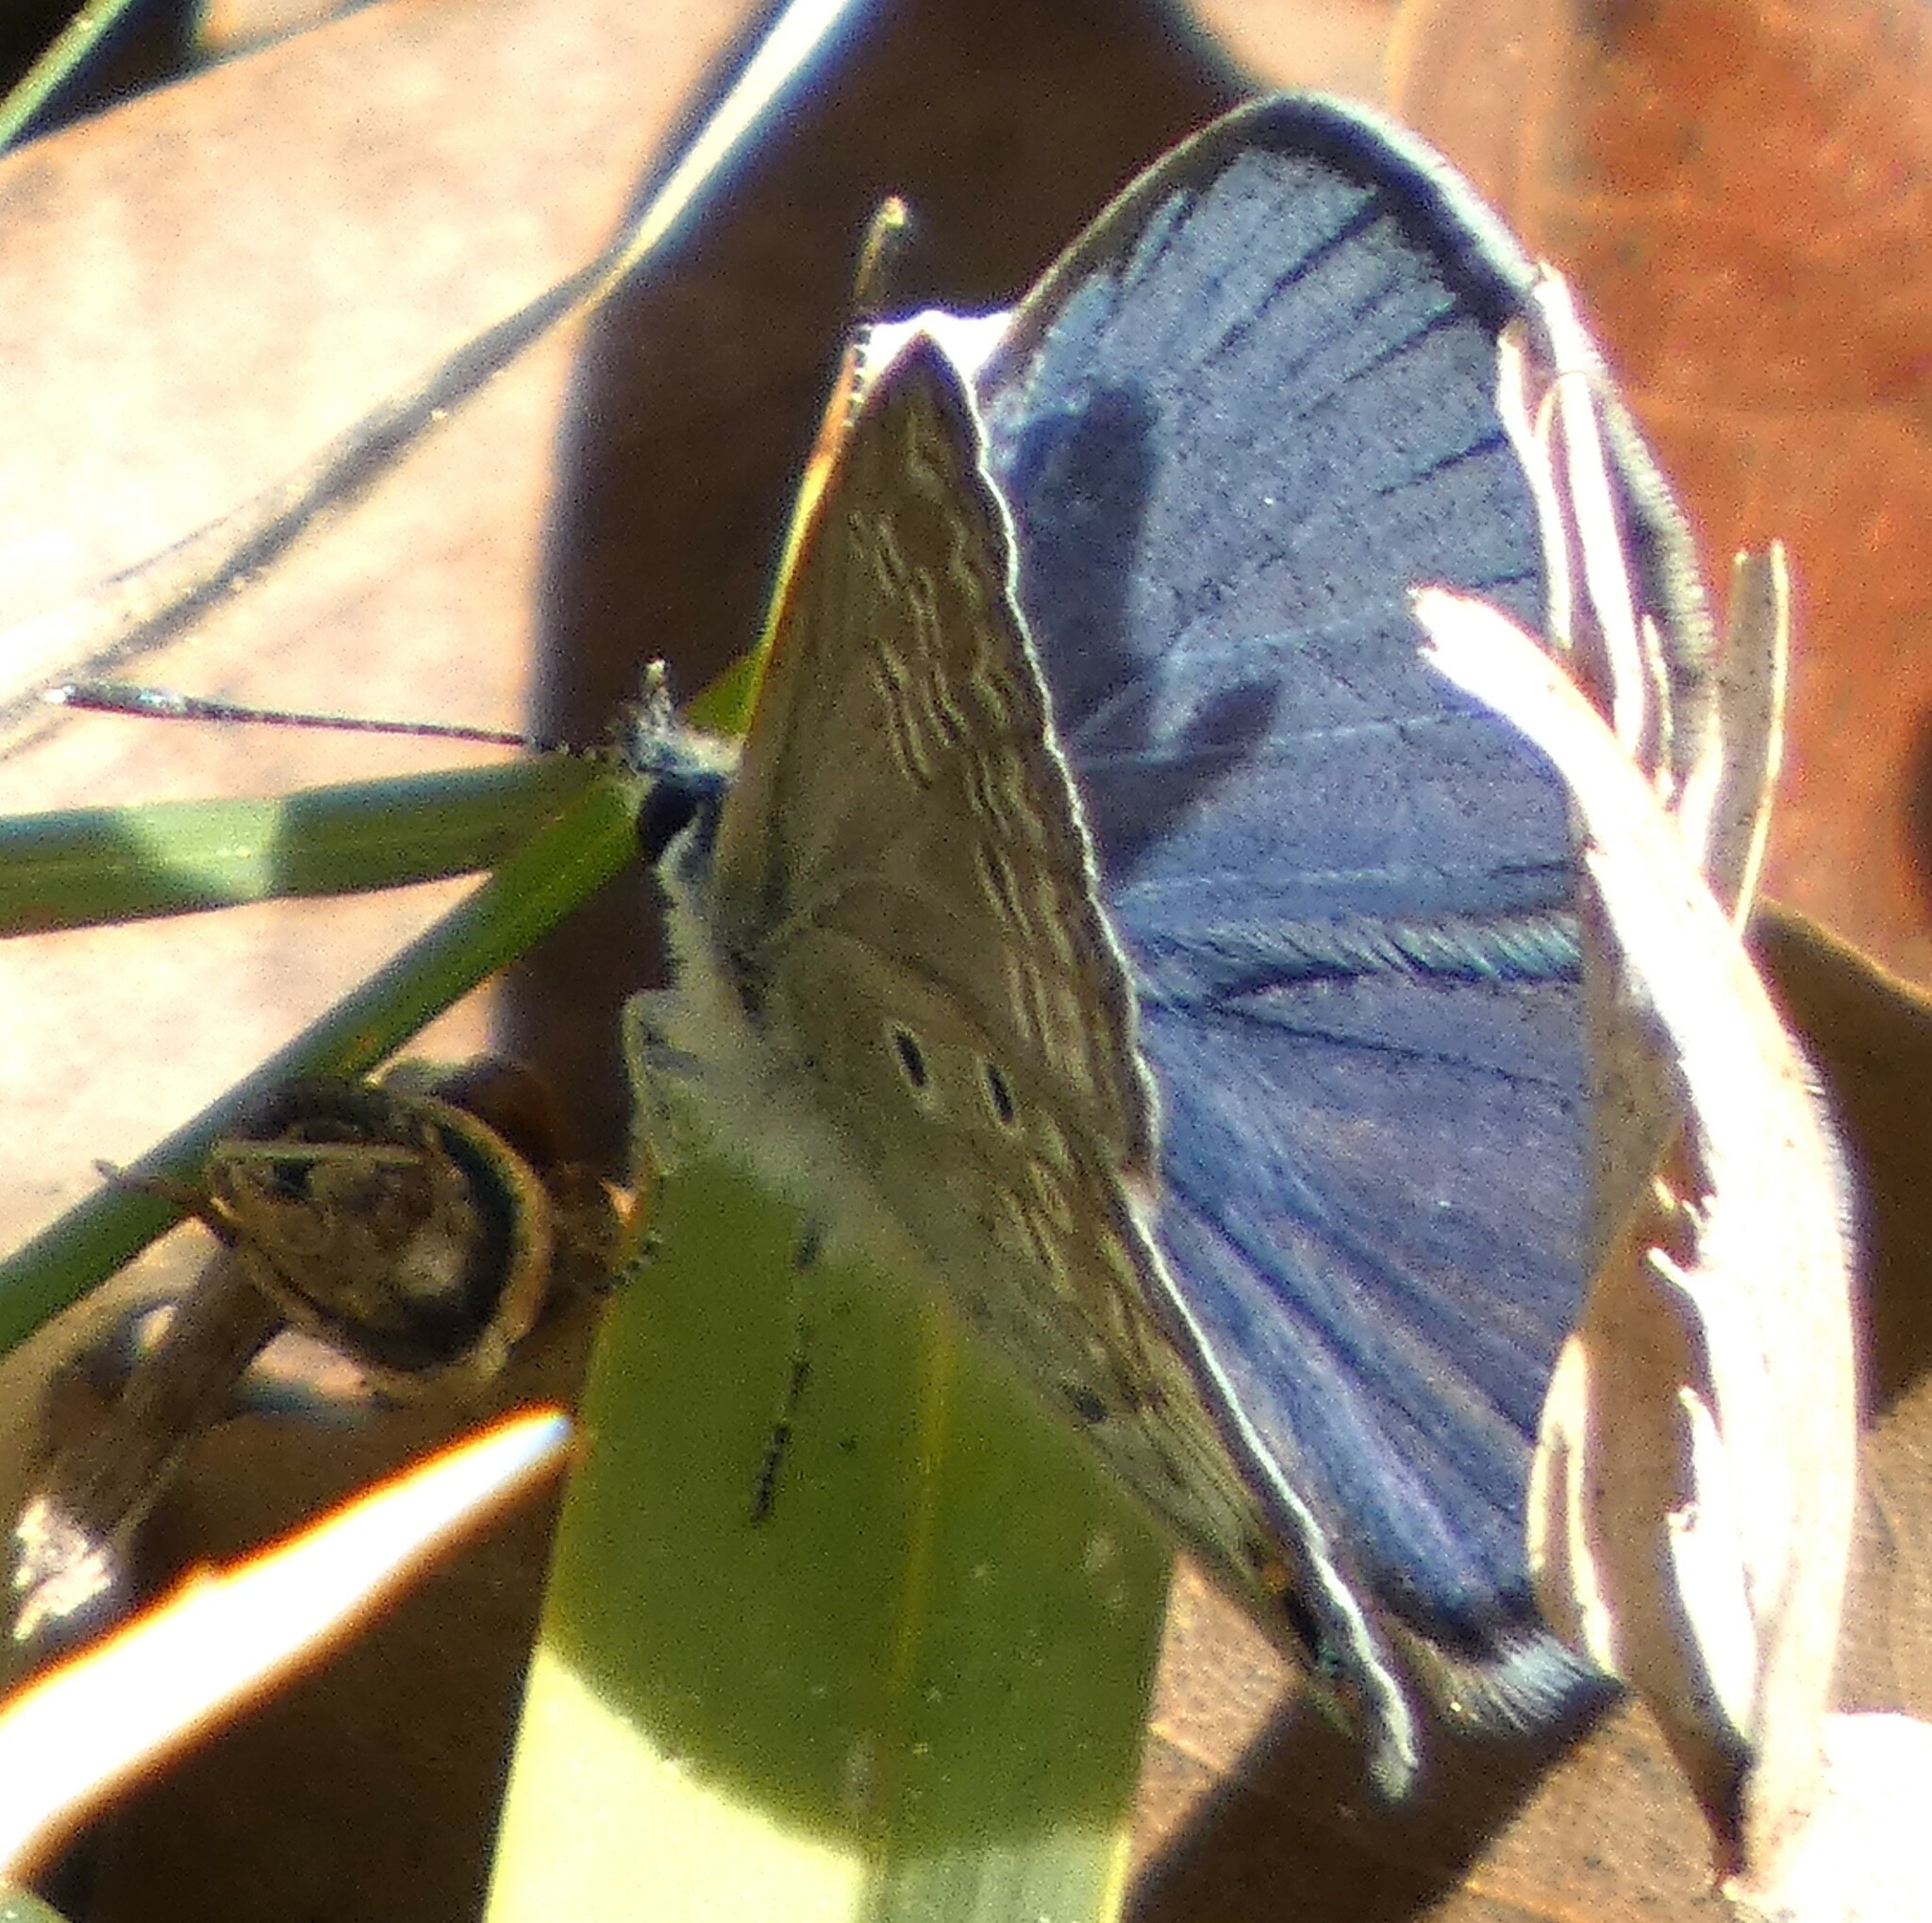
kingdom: Animalia
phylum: Arthropoda
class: Insecta
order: Lepidoptera
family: Lycaenidae
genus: Hemiargus
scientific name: Hemiargus ceraunus
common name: Ceraunus blue
